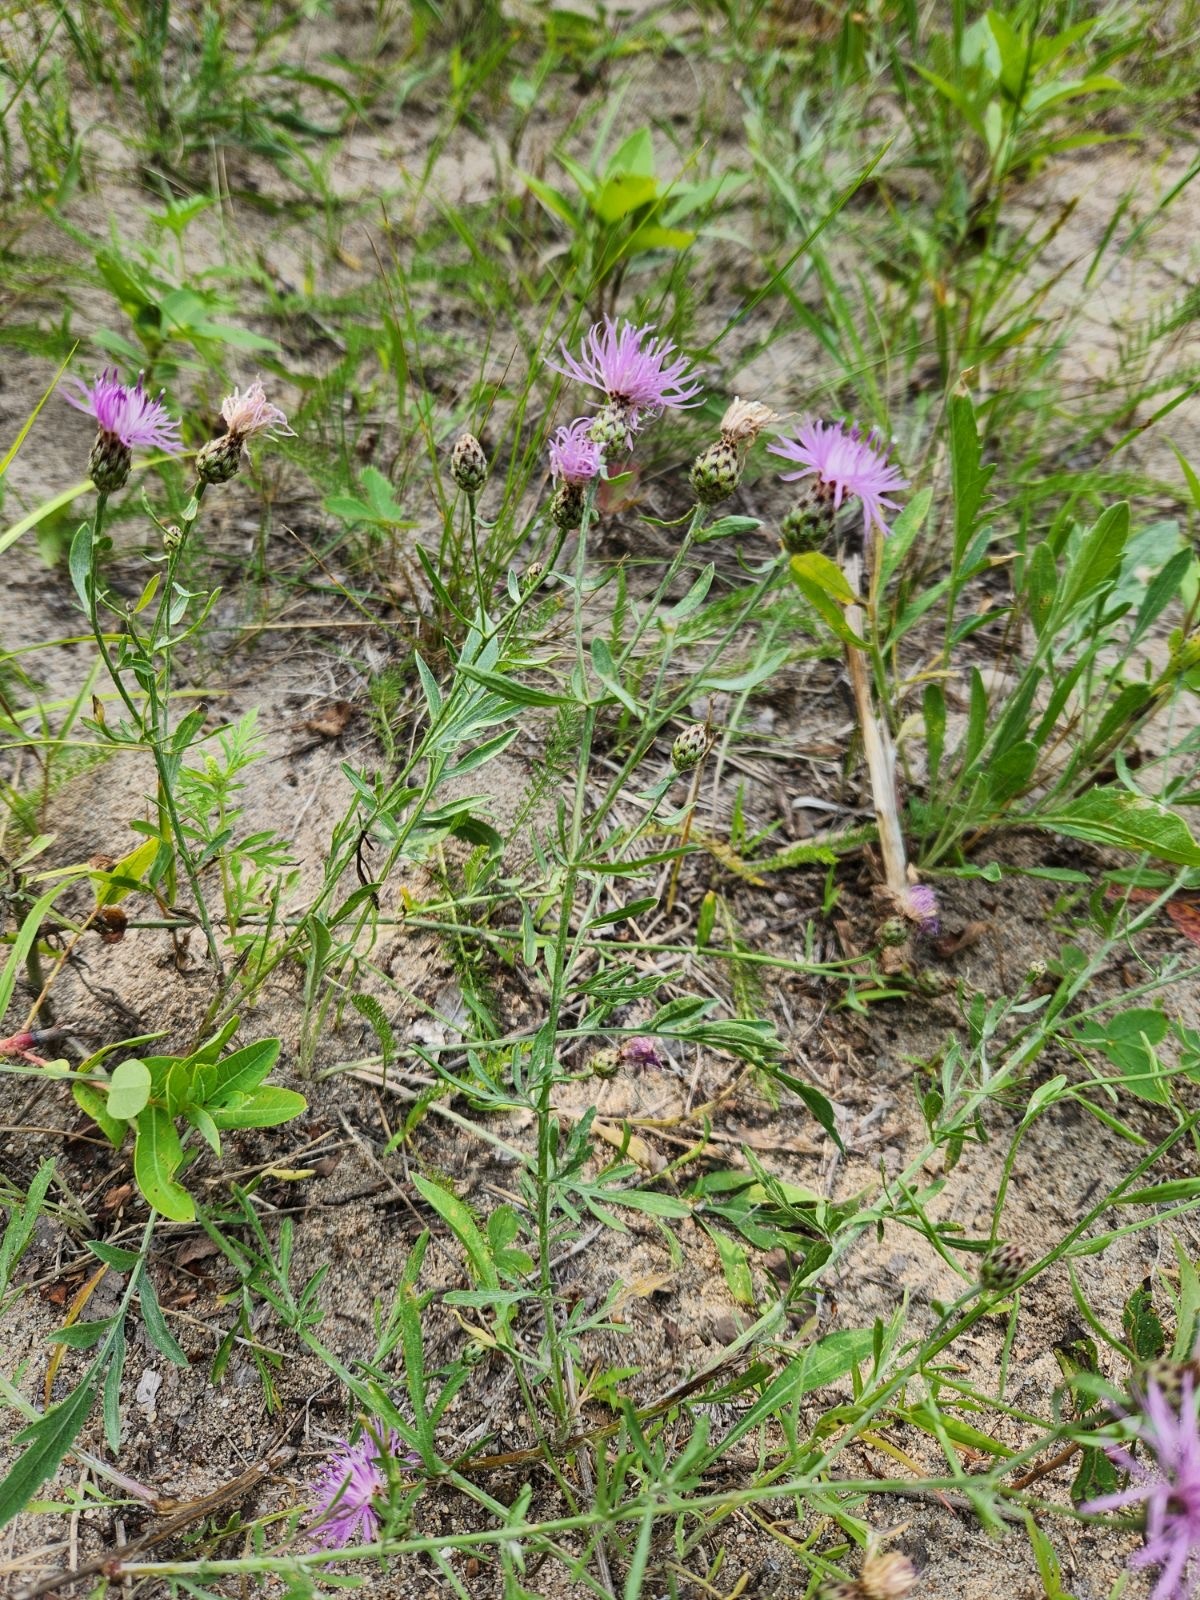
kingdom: Plantae
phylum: Tracheophyta
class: Magnoliopsida
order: Asterales
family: Asteraceae
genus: Centaurea
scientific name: Centaurea stoebe
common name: Spotted knapweed
